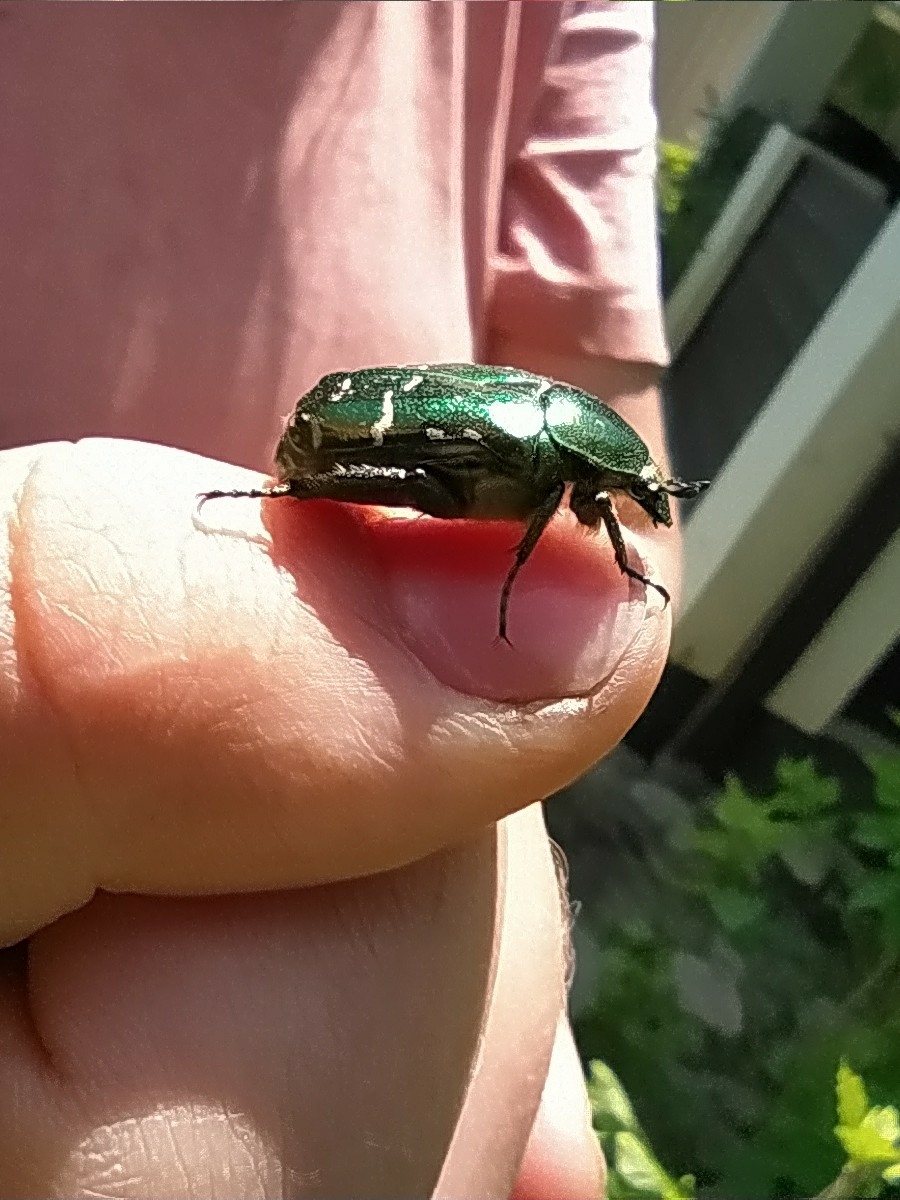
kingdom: Animalia
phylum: Arthropoda
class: Insecta
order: Coleoptera
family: Scarabaeidae
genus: Cetonia
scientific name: Cetonia aurata
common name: Rose chafer
